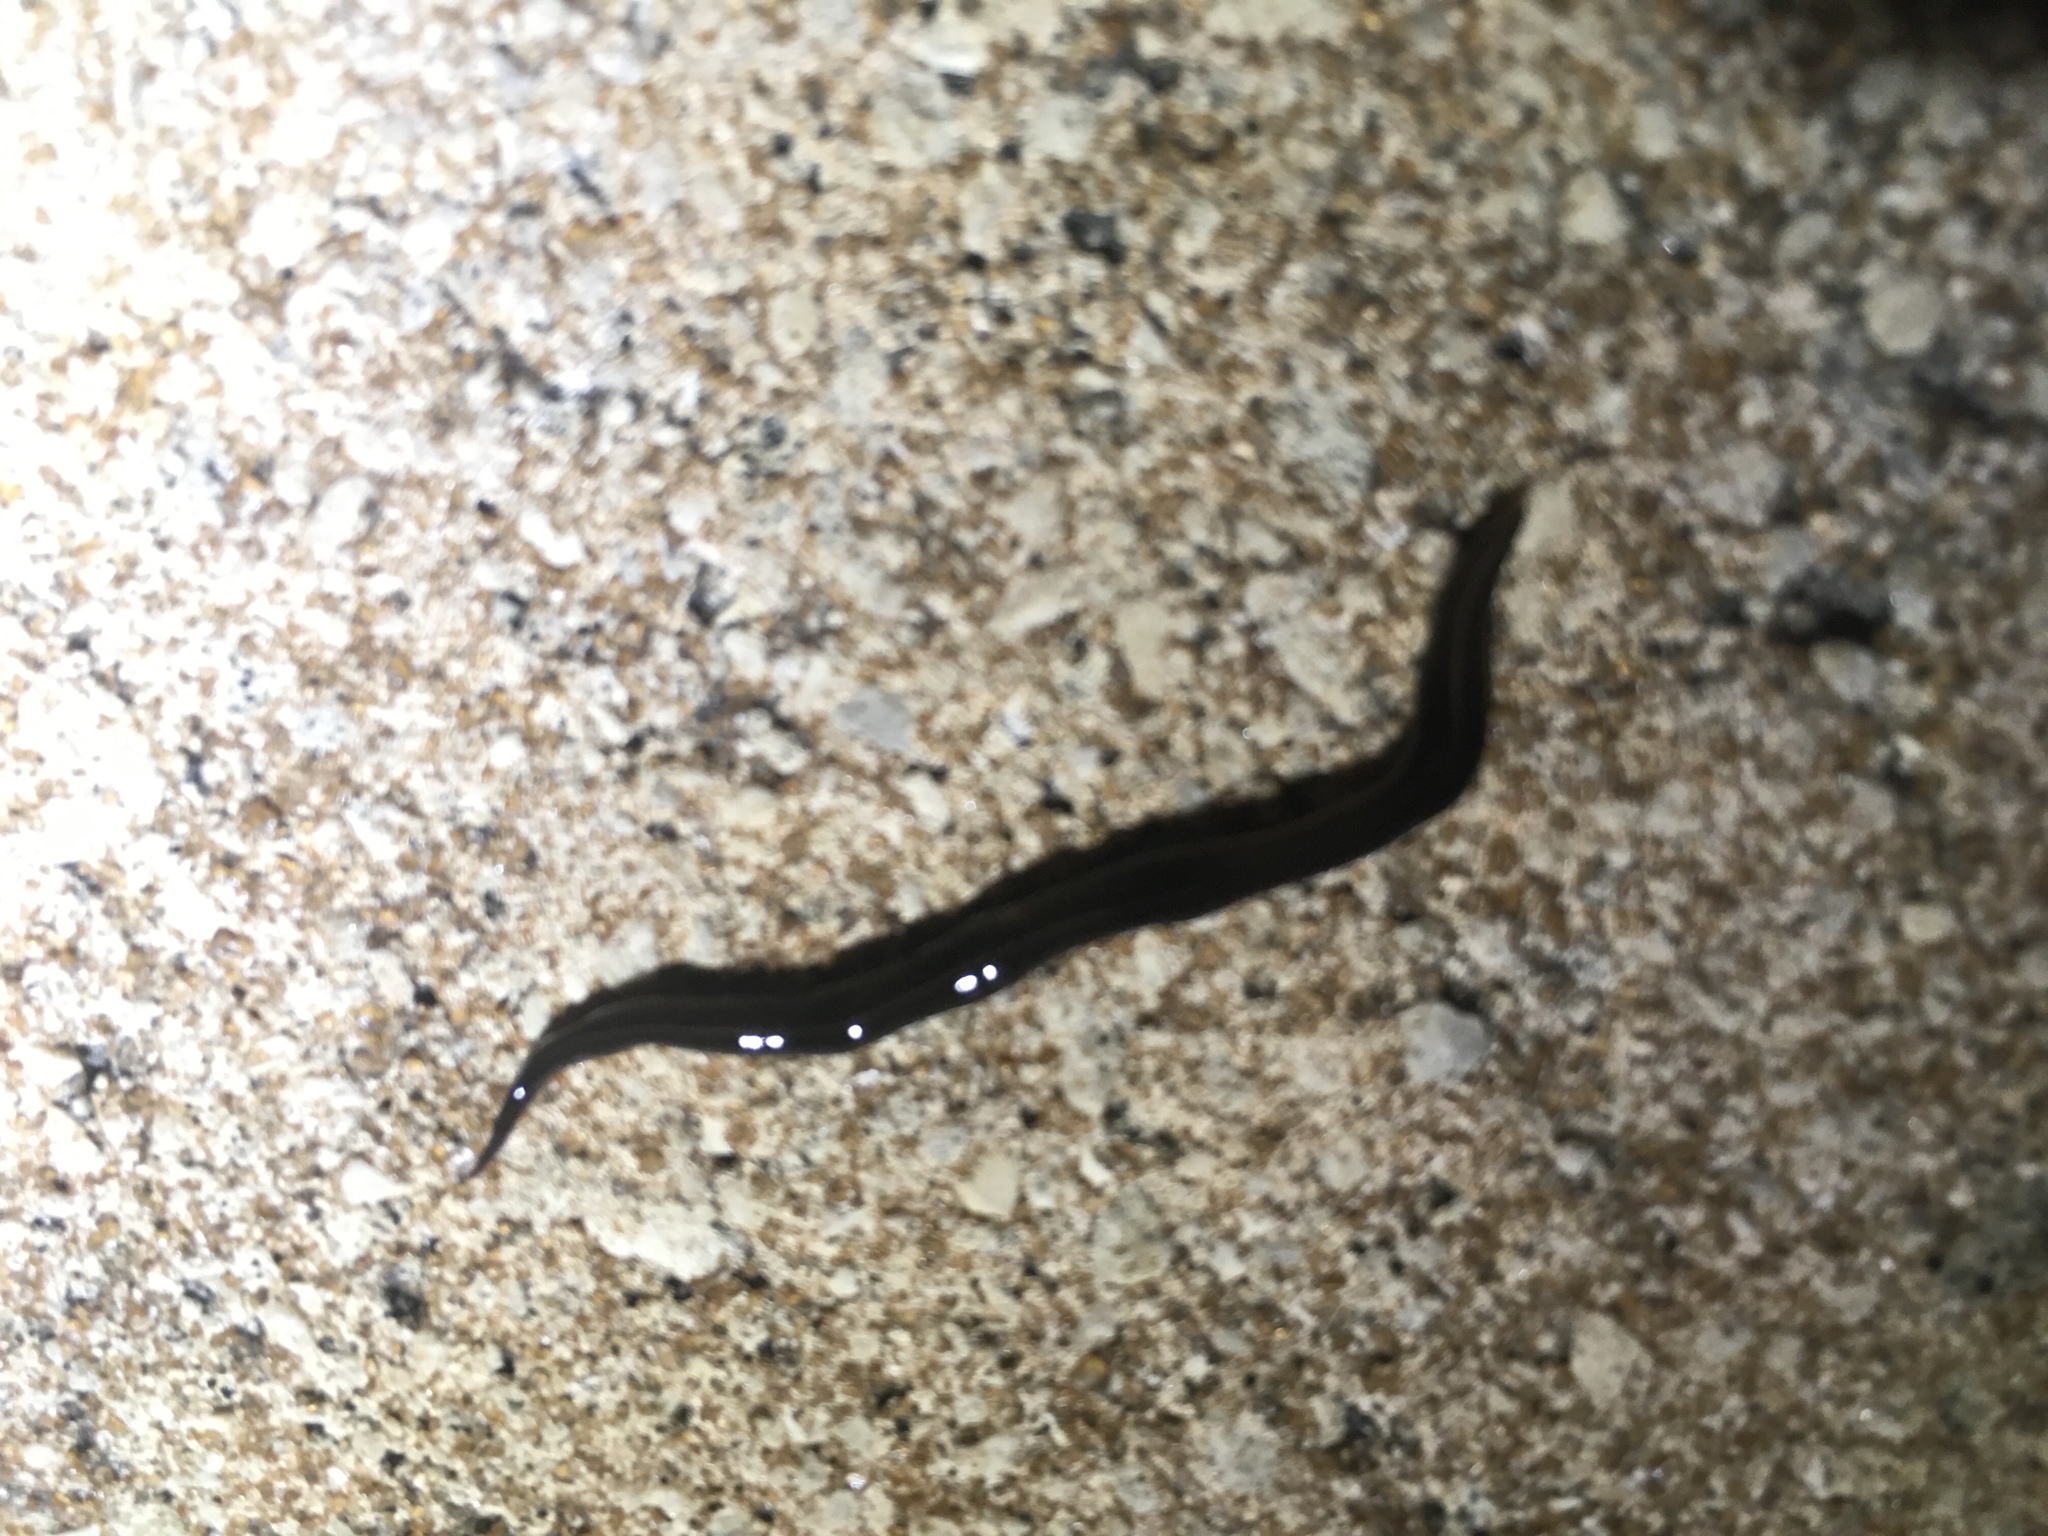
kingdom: Animalia
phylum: Platyhelminthes
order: Tricladida
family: Geoplanidae
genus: Platydemus
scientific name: Platydemus manokwari
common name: New guinea flatworm
